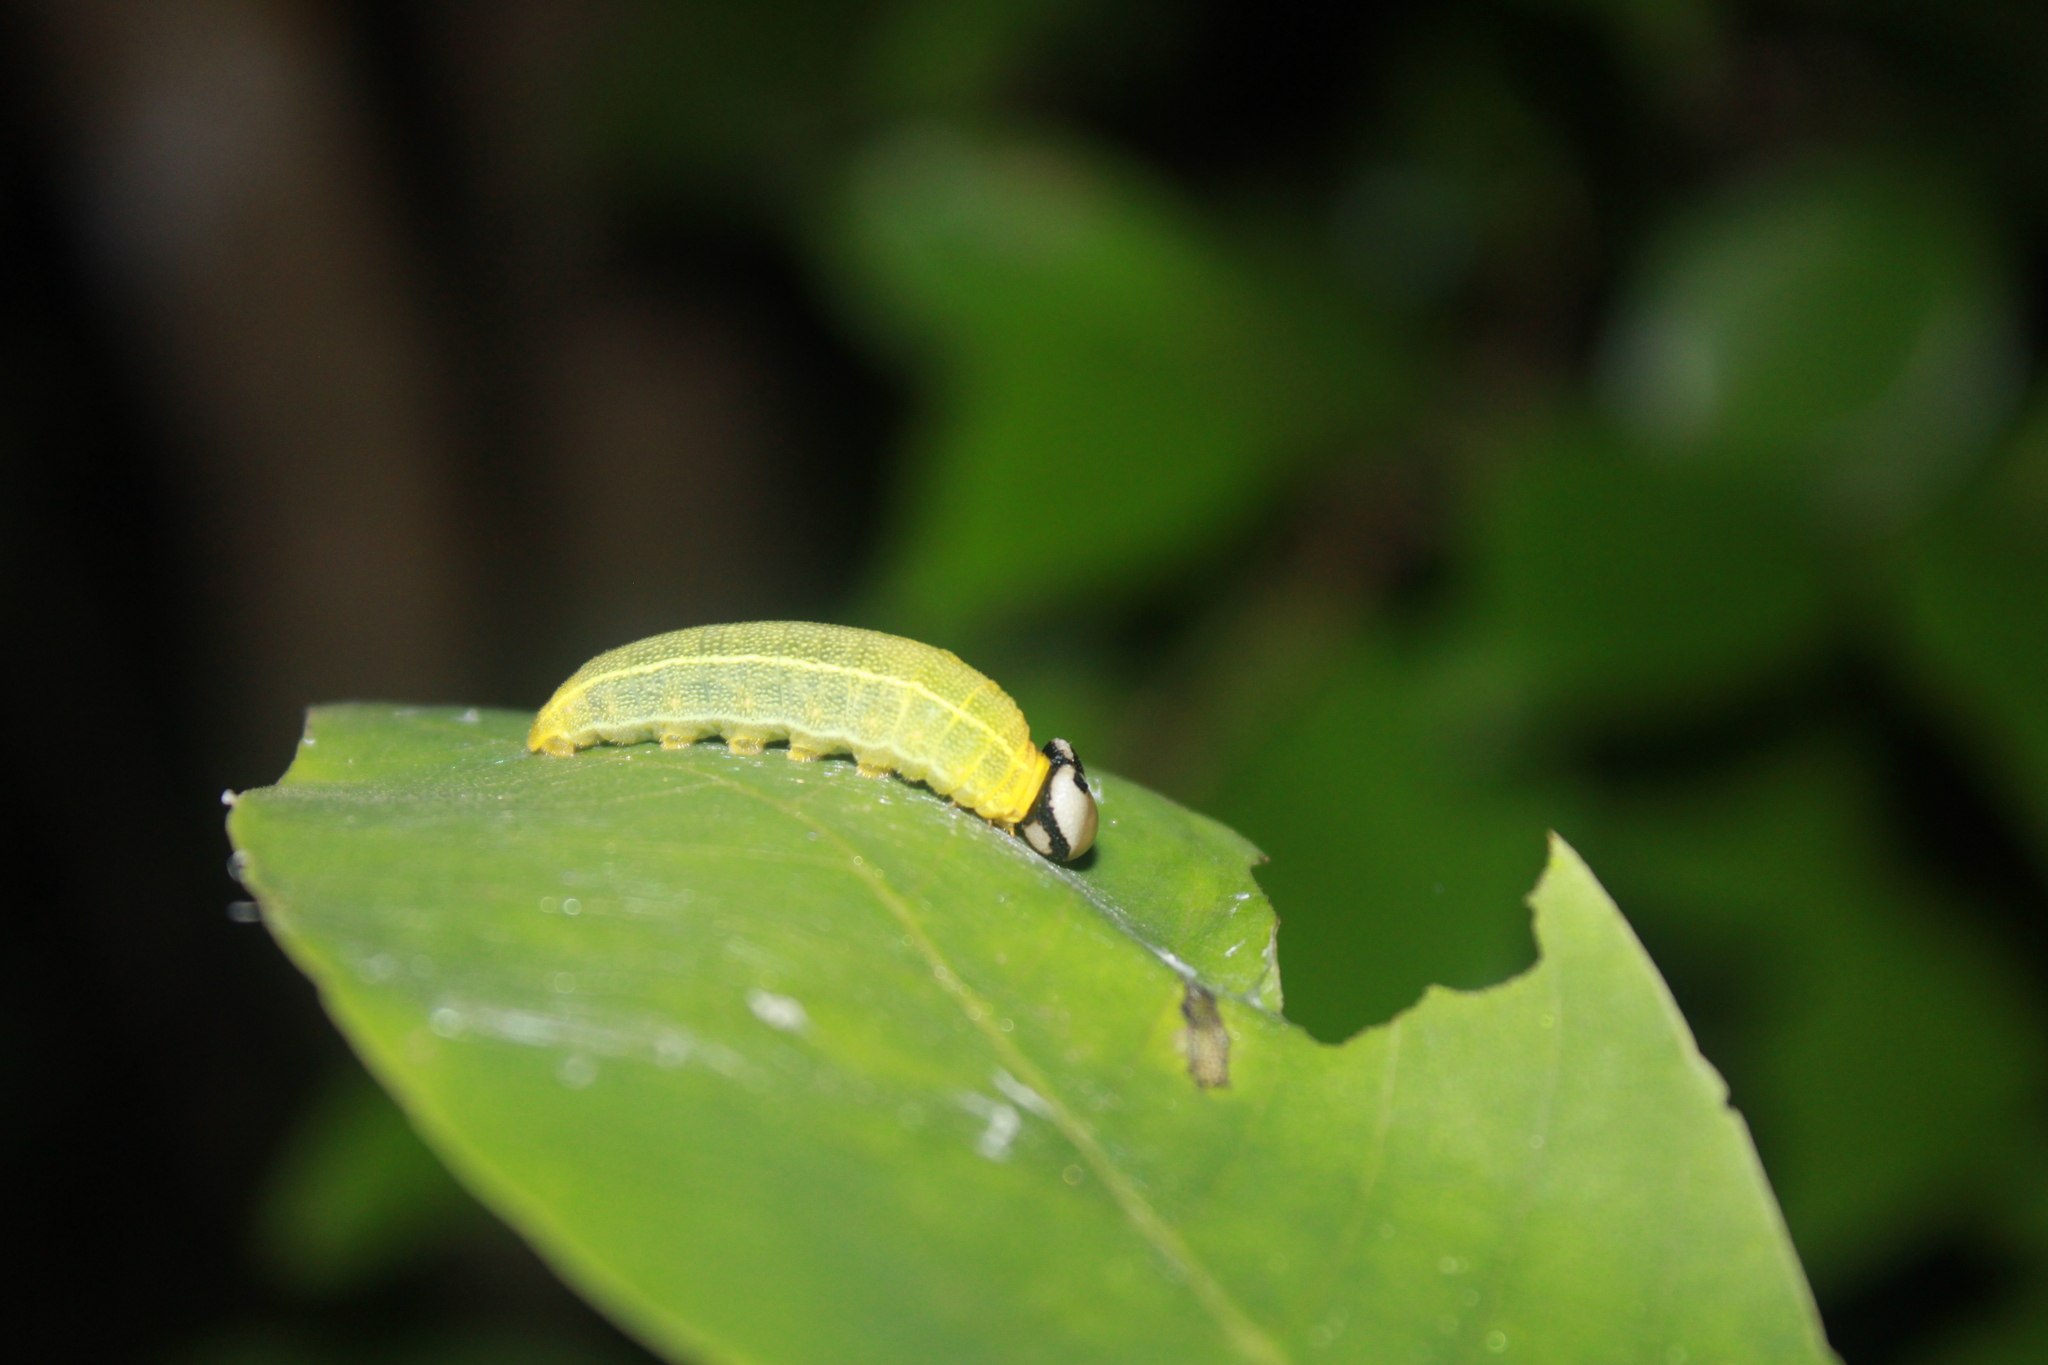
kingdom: Animalia
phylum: Arthropoda
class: Insecta
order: Lepidoptera
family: Hesperiidae
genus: Polygonus
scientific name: Polygonus leo
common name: Hammoch skipper
